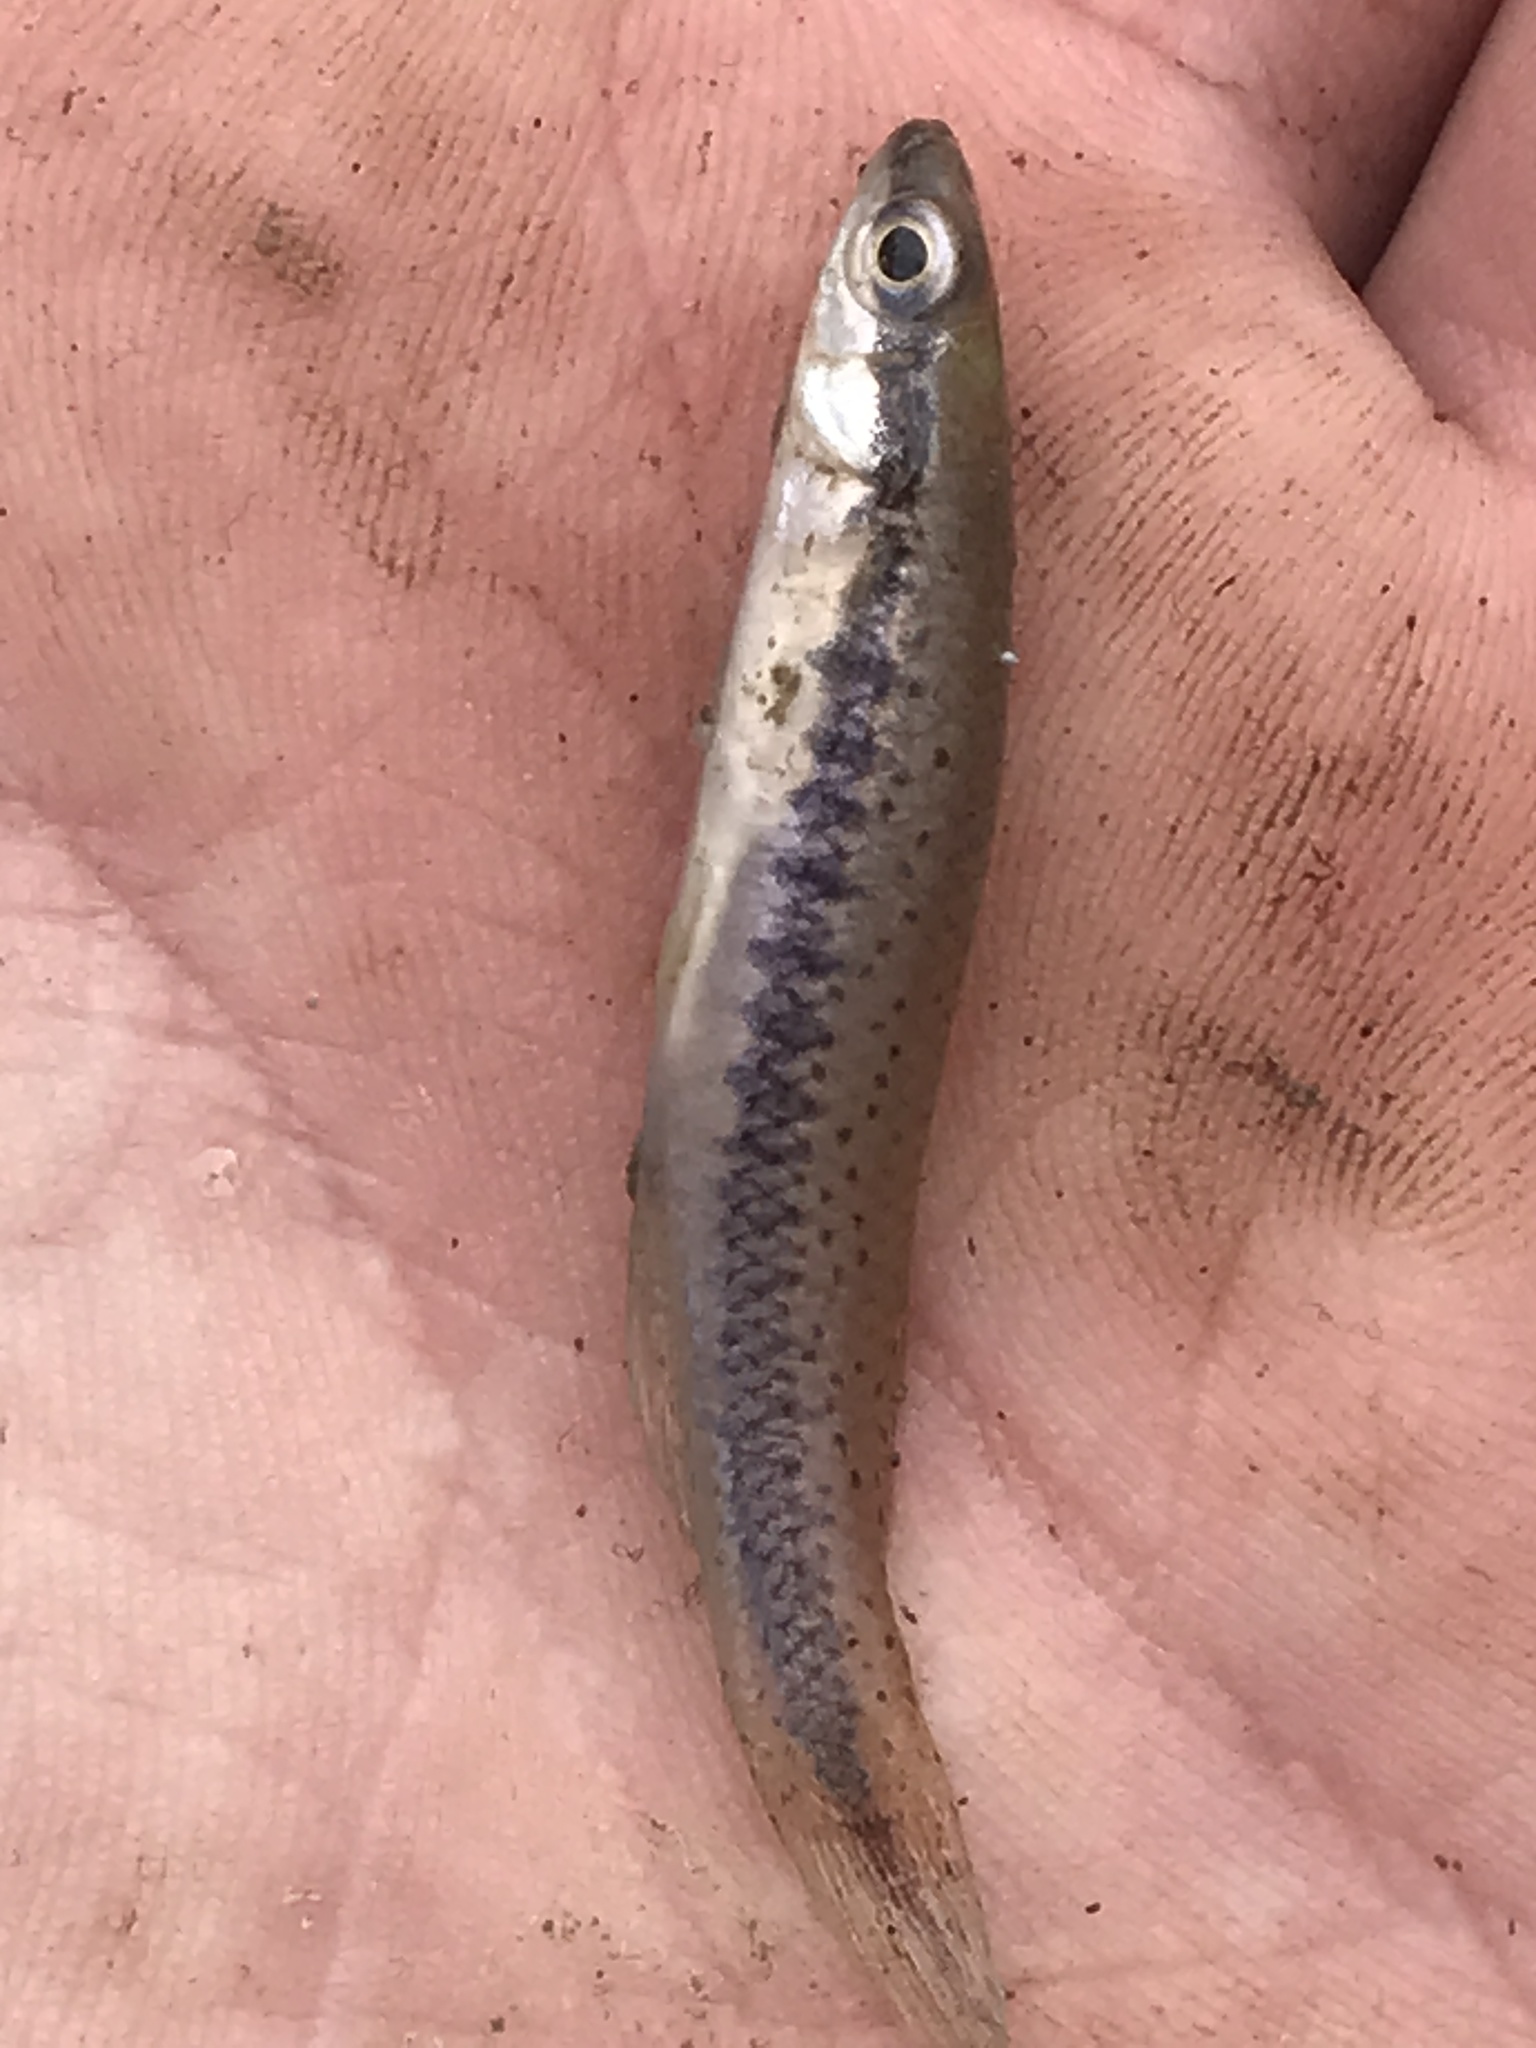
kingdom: Animalia
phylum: Chordata
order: Cyprinodontiformes
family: Fundulidae
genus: Fundulus
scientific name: Fundulus olivaceus
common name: Blackspotted topminnow
